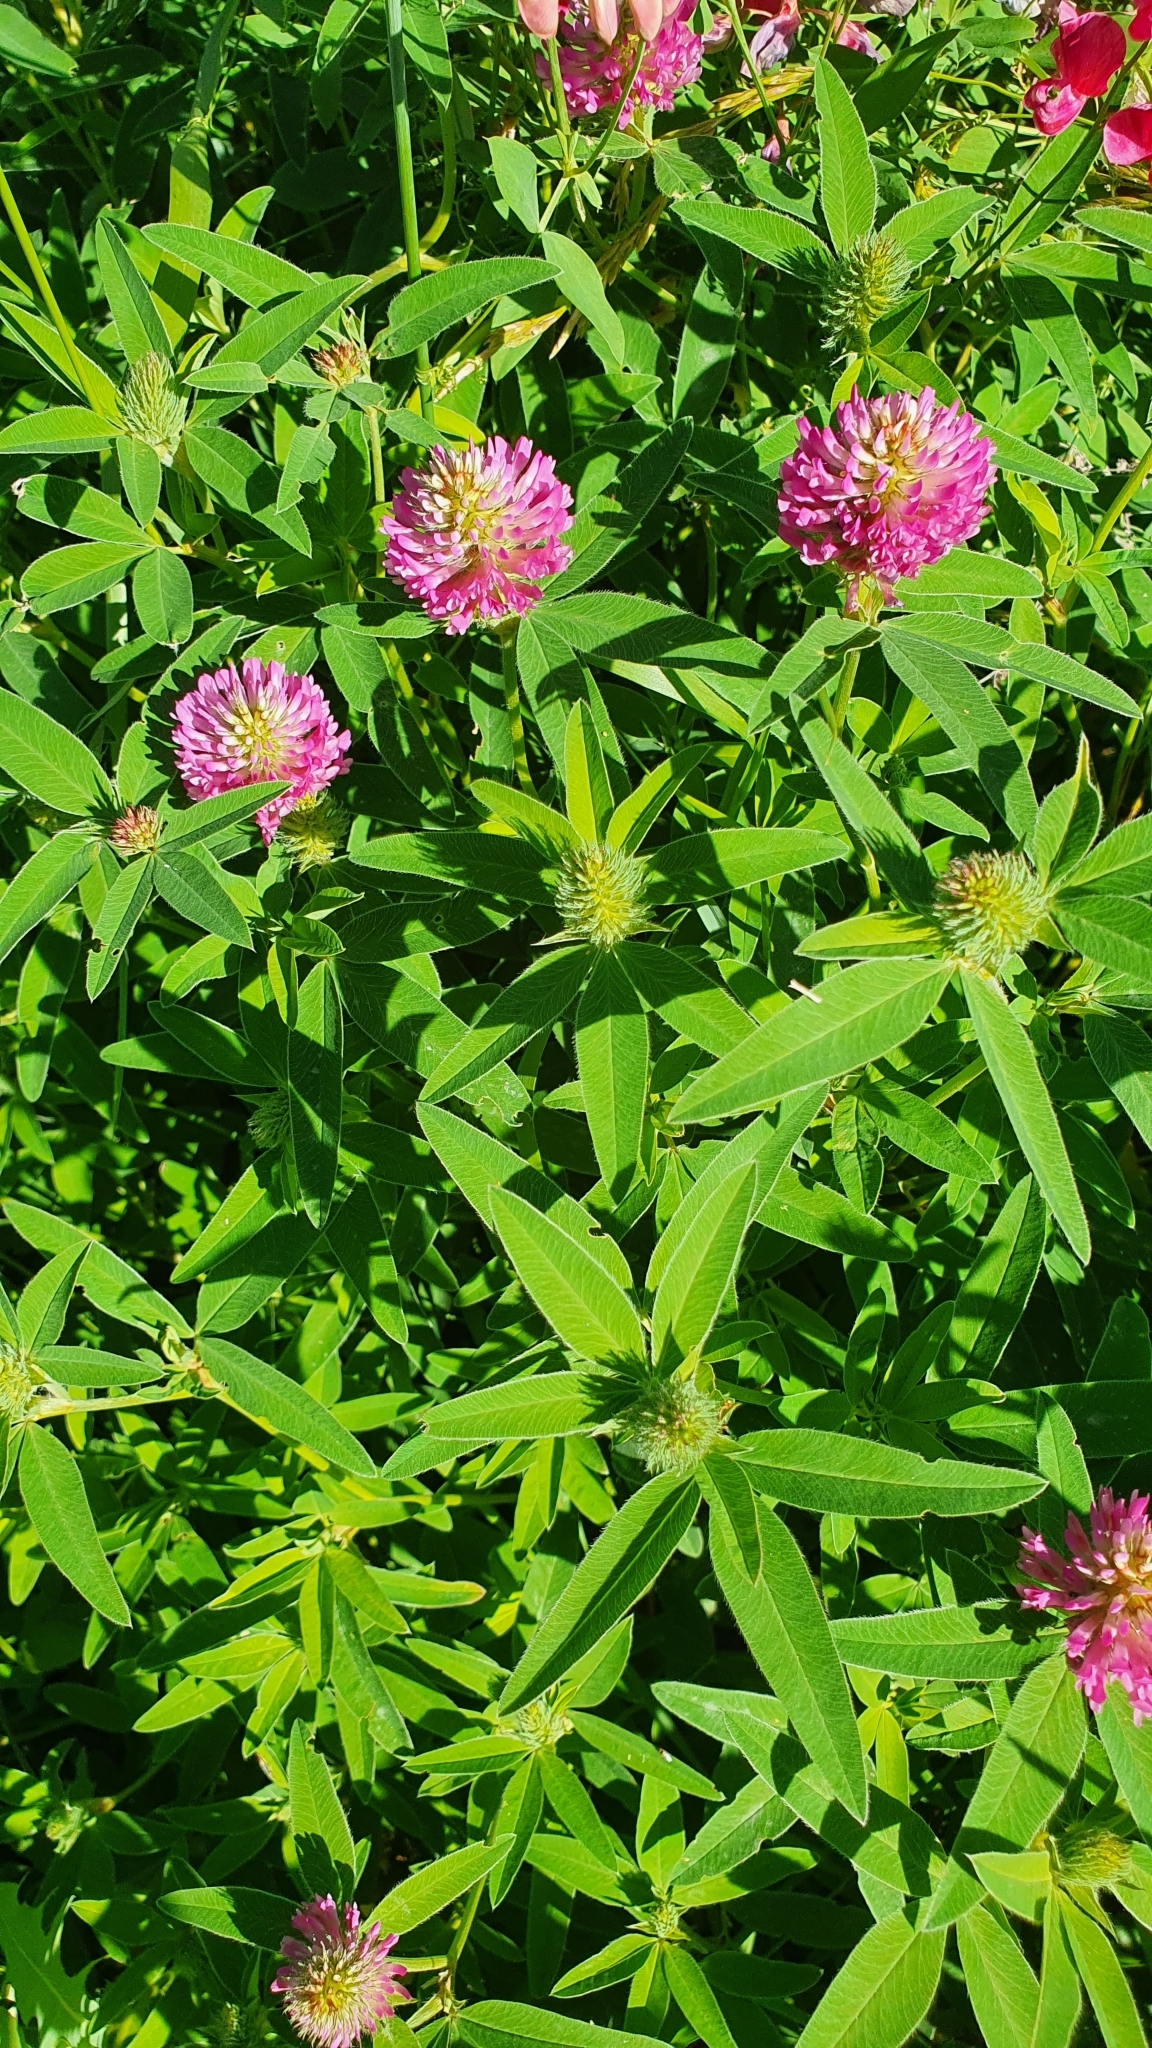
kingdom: Plantae
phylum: Tracheophyta
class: Magnoliopsida
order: Fabales
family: Fabaceae
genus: Trifolium
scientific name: Trifolium medium
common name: Zigzag clover
